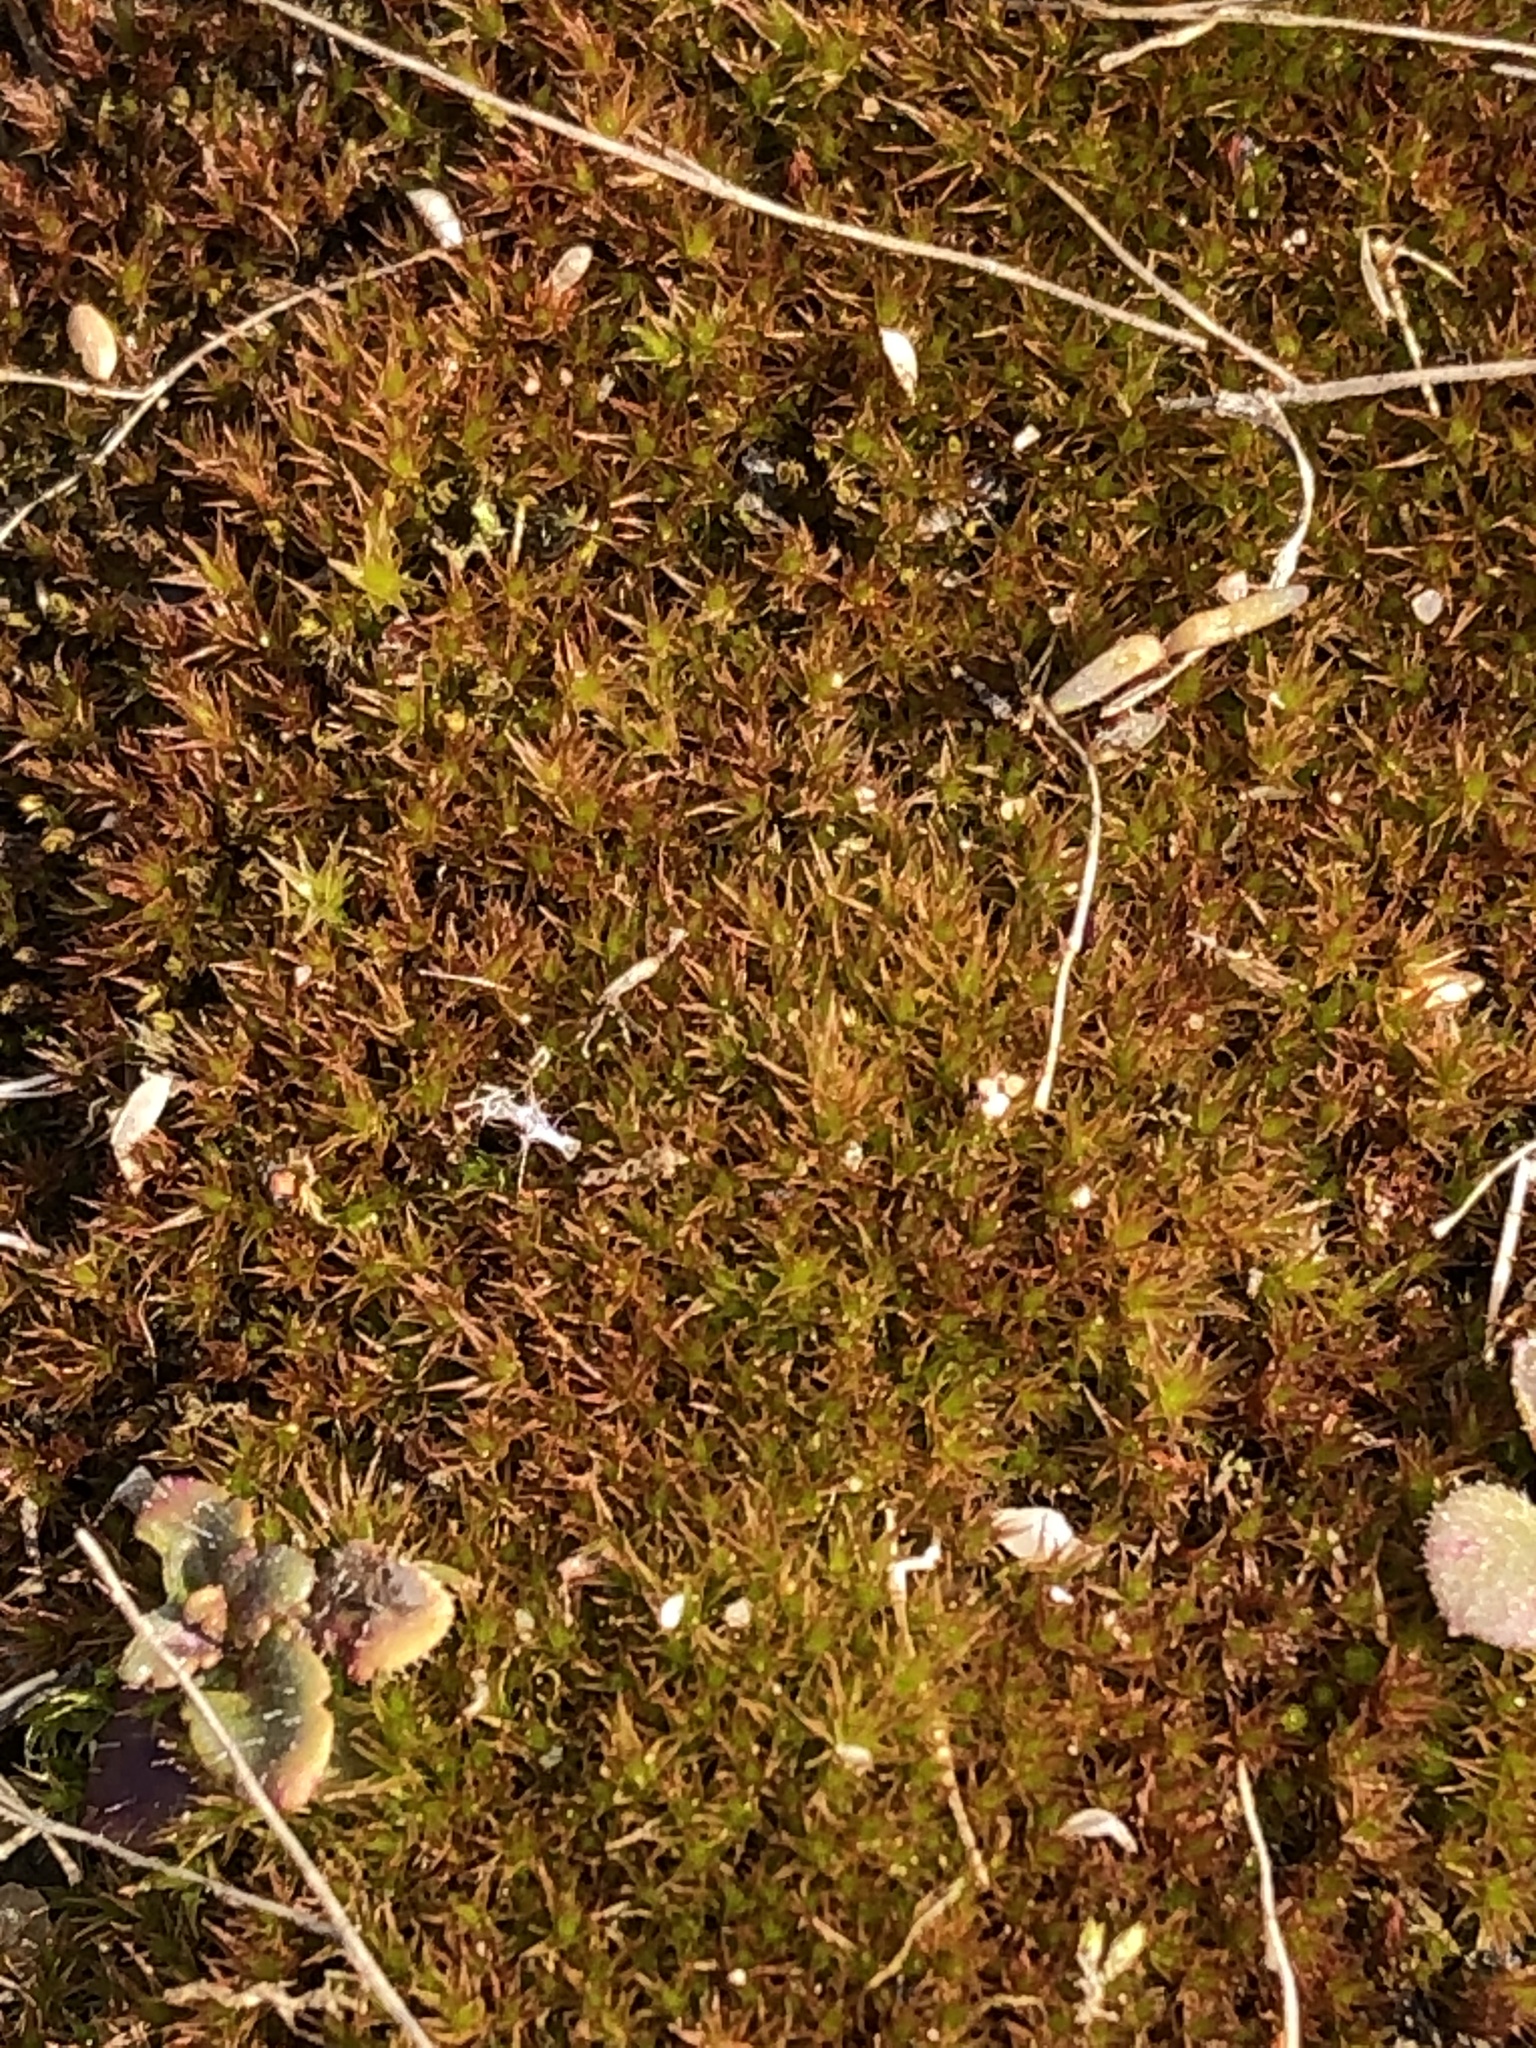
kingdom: Plantae
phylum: Bryophyta
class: Bryopsida
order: Dicranales
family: Ditrichaceae
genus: Ceratodon
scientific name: Ceratodon purpureus
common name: Redshank
